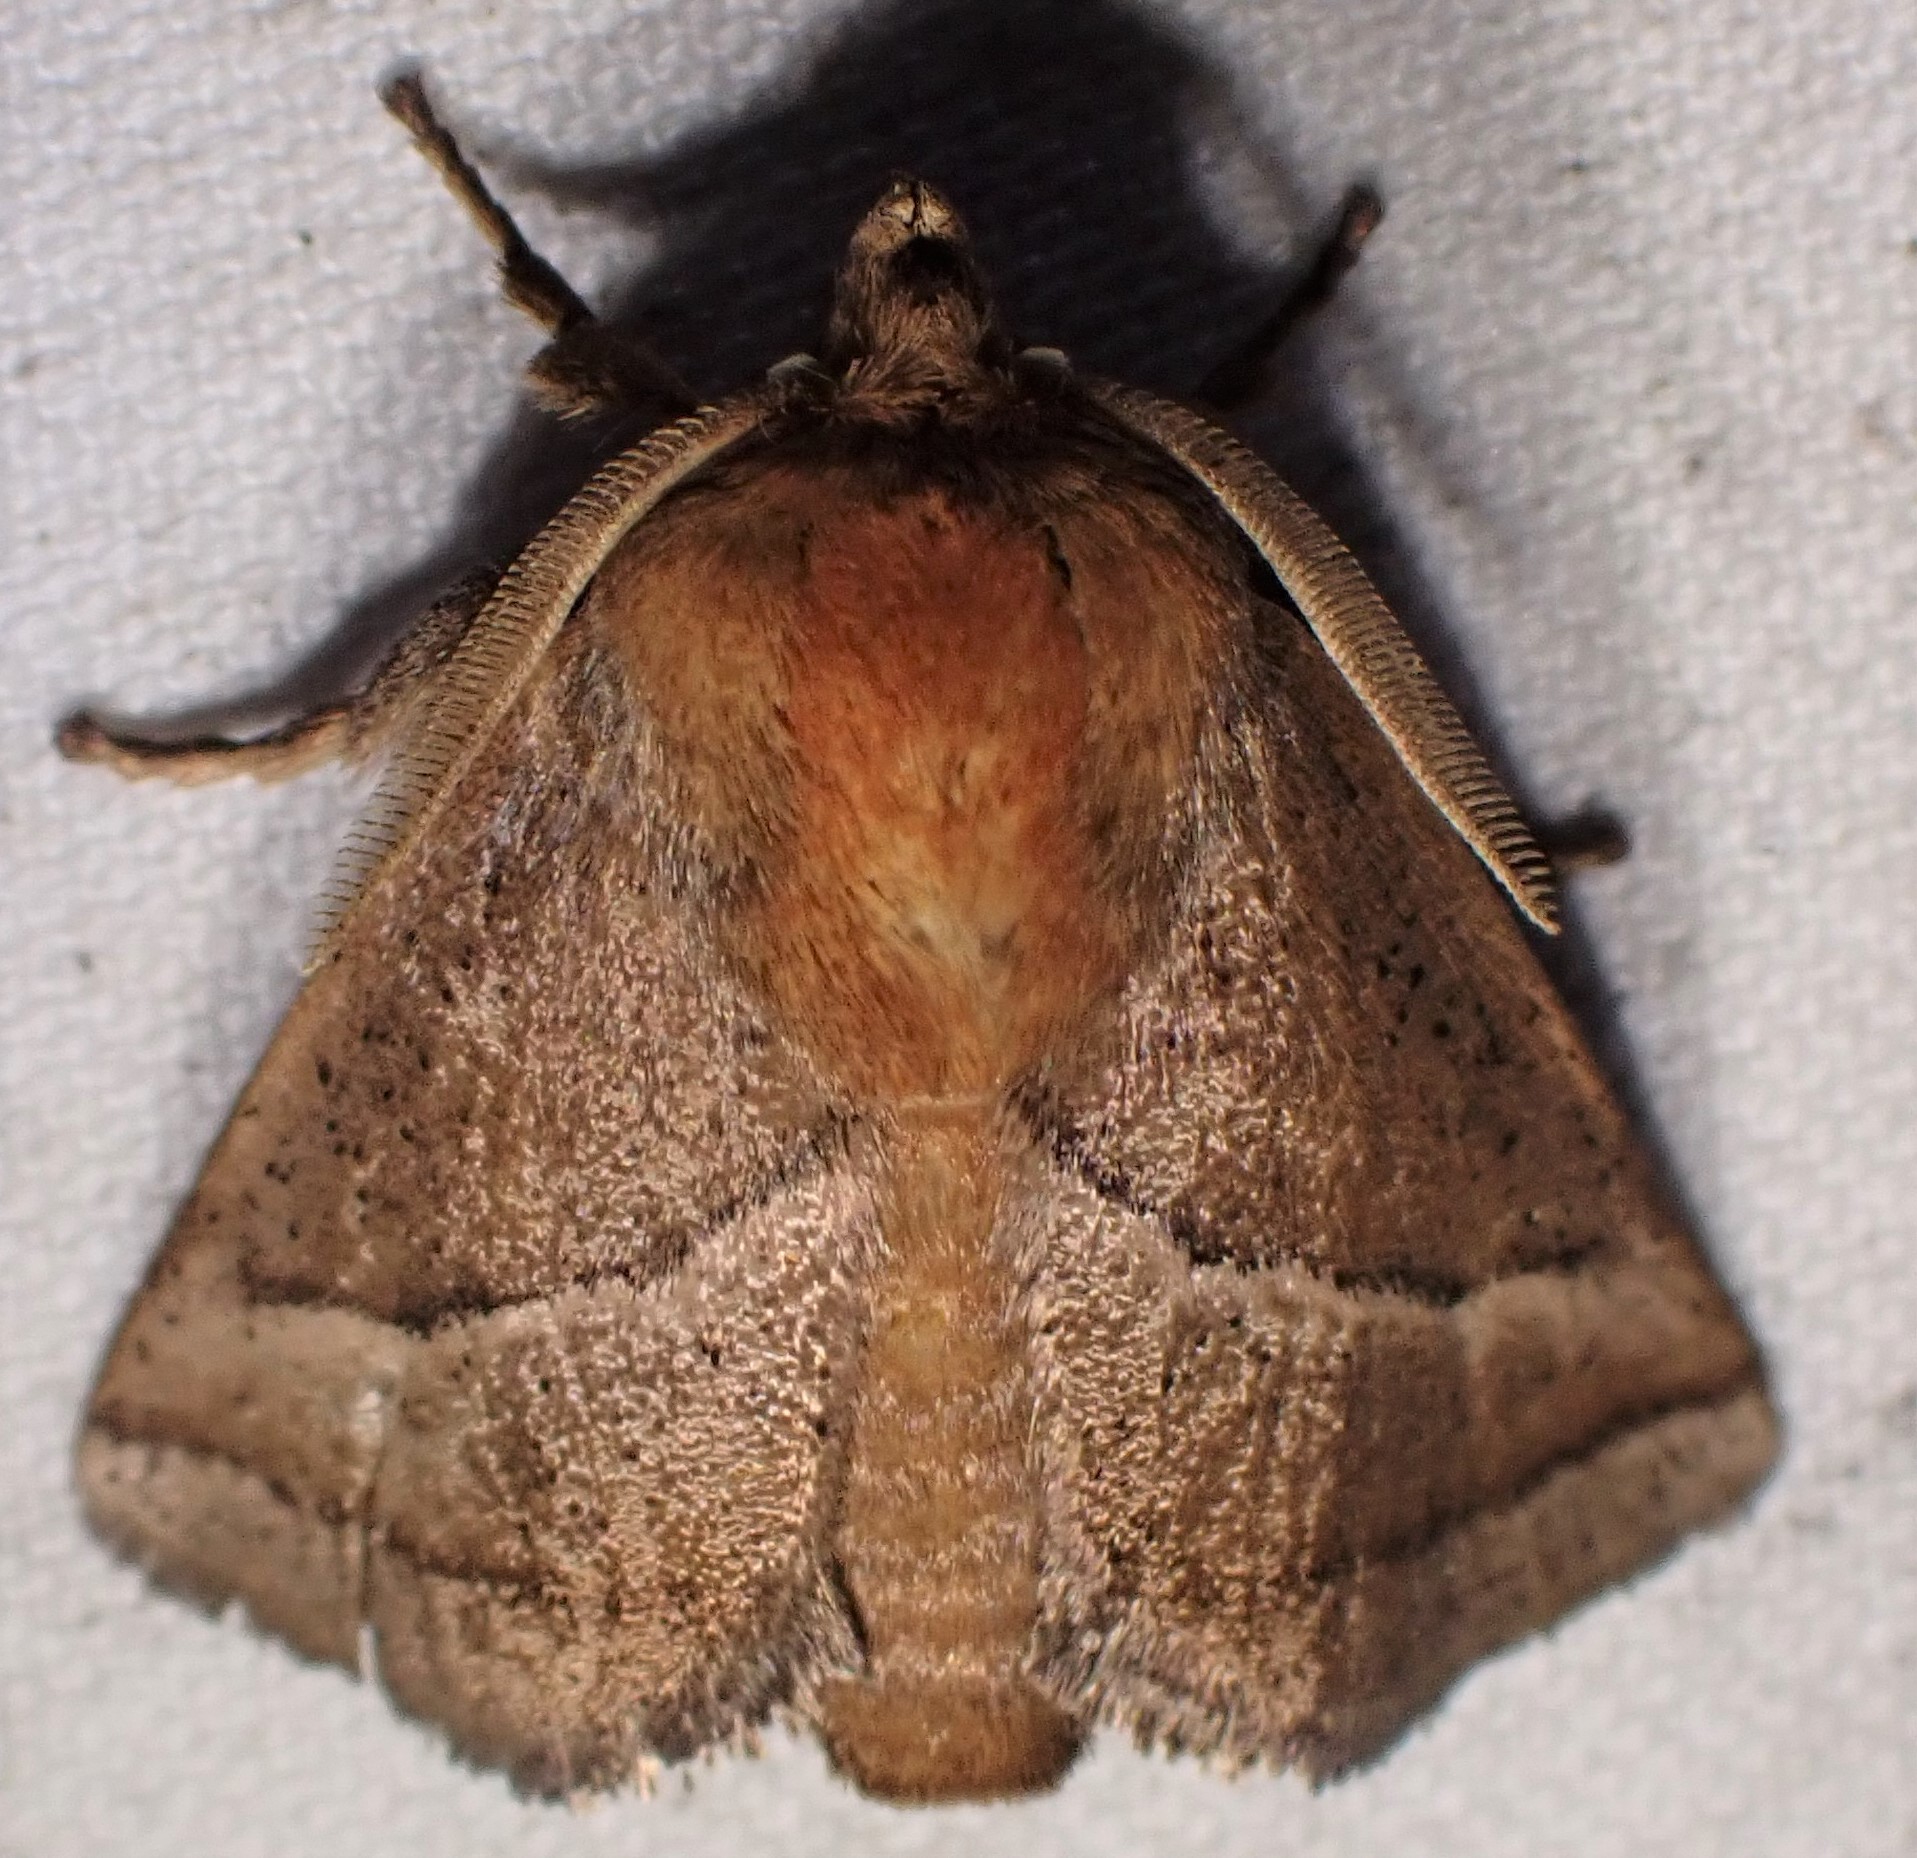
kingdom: Animalia
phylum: Arthropoda
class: Insecta
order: Lepidoptera
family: Limacodidae
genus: Natada
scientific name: Natada nasoni
